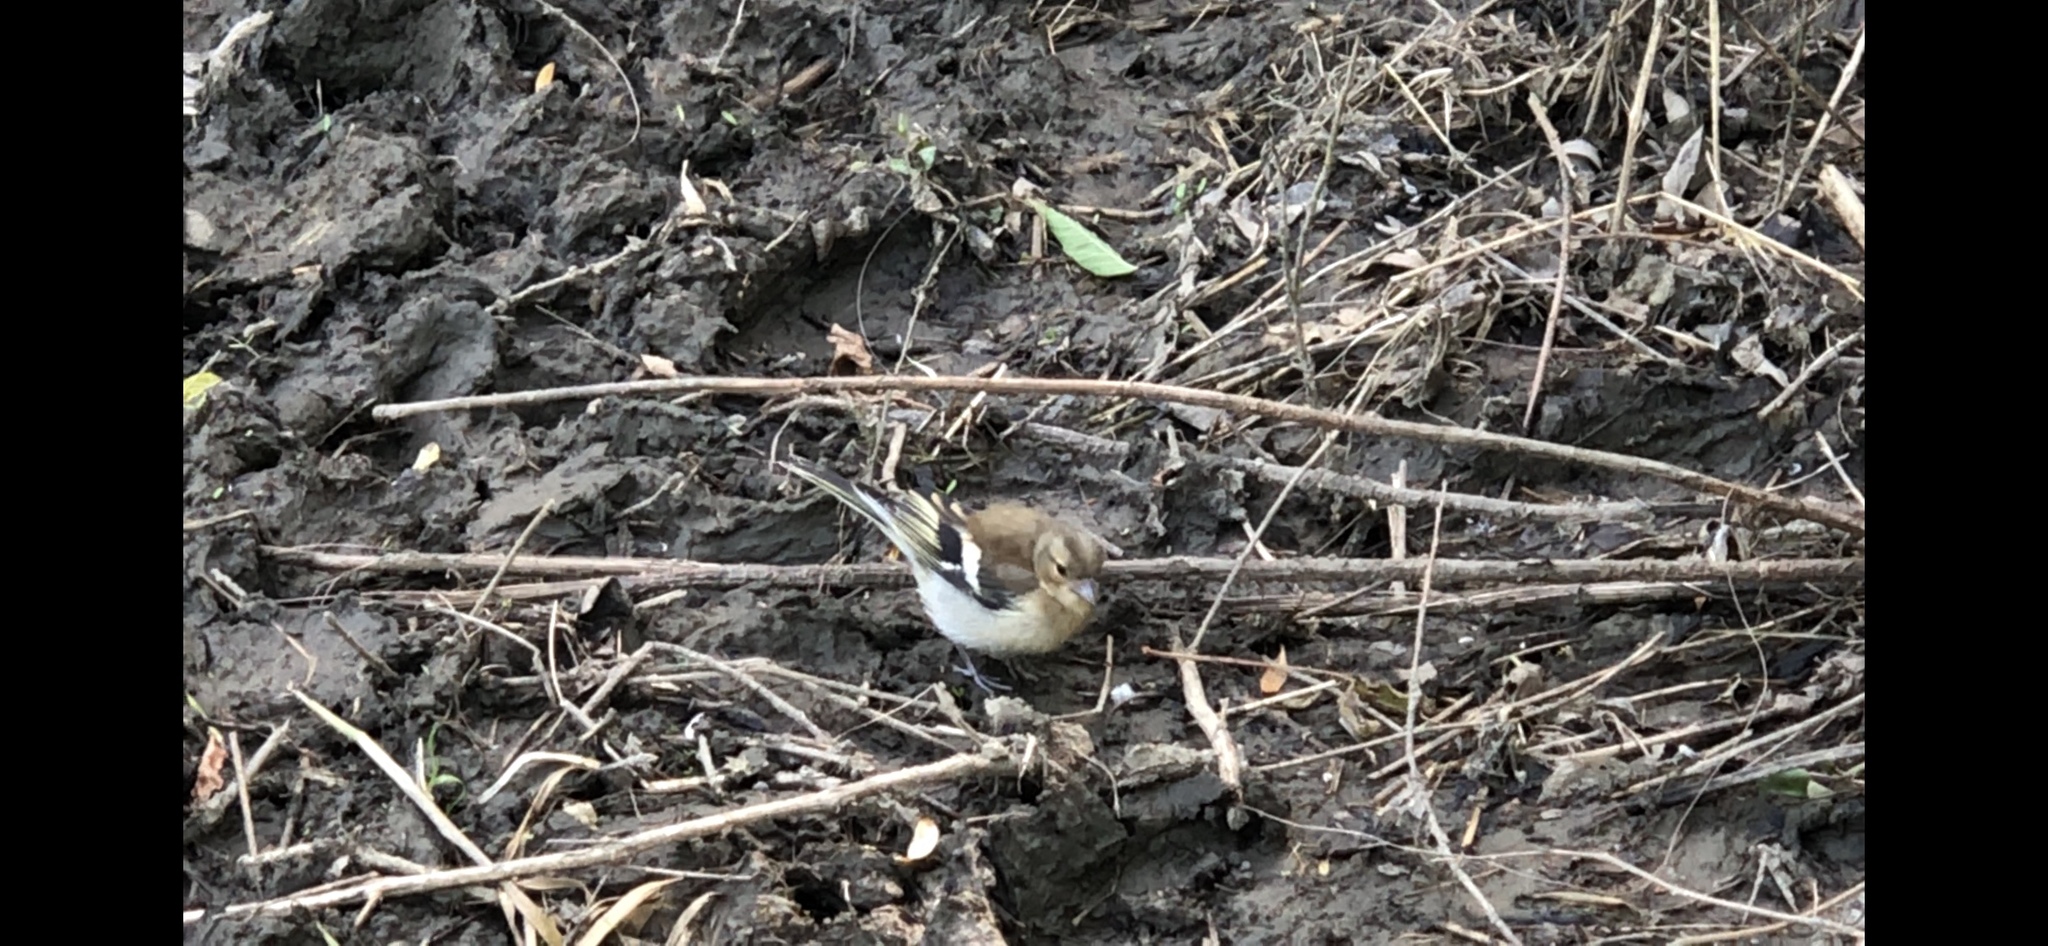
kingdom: Animalia
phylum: Chordata
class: Aves
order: Passeriformes
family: Fringillidae
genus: Fringilla
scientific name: Fringilla coelebs
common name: Common chaffinch
